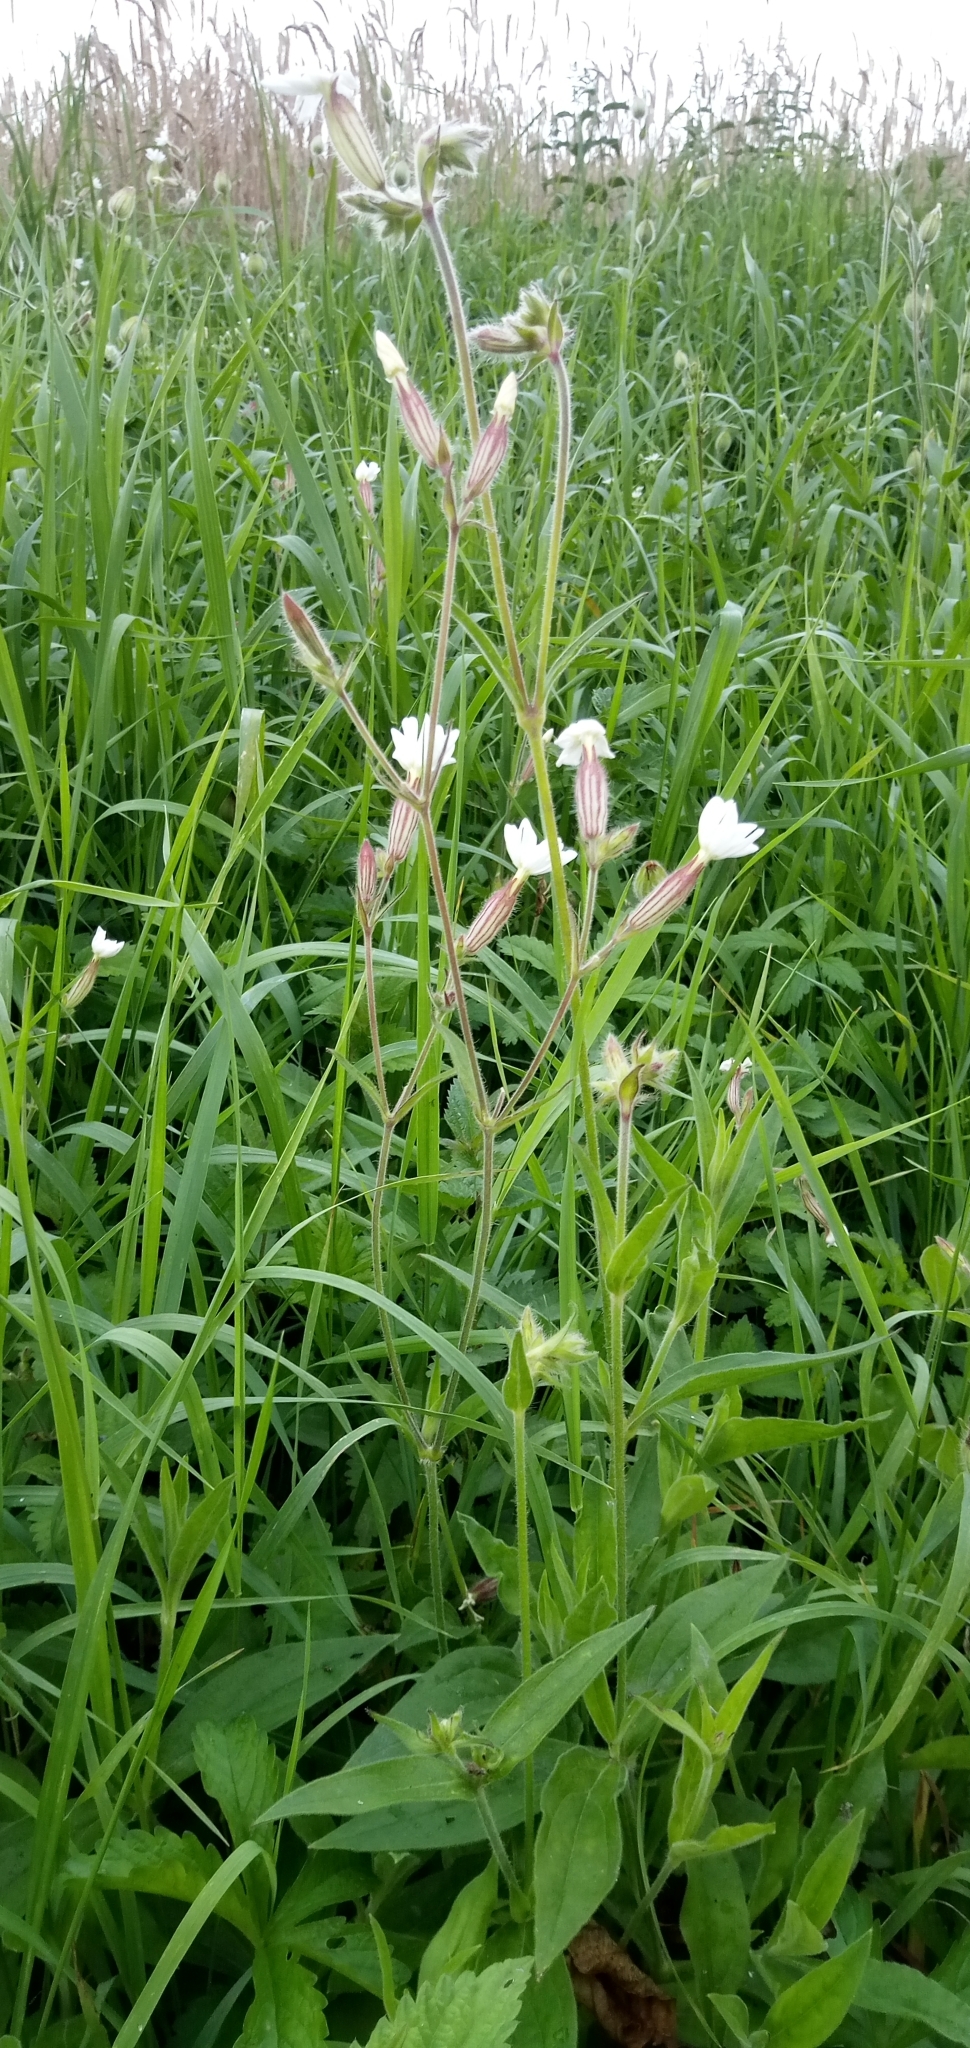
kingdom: Plantae
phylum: Tracheophyta
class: Magnoliopsida
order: Caryophyllales
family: Caryophyllaceae
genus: Silene
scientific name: Silene latifolia
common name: White campion
